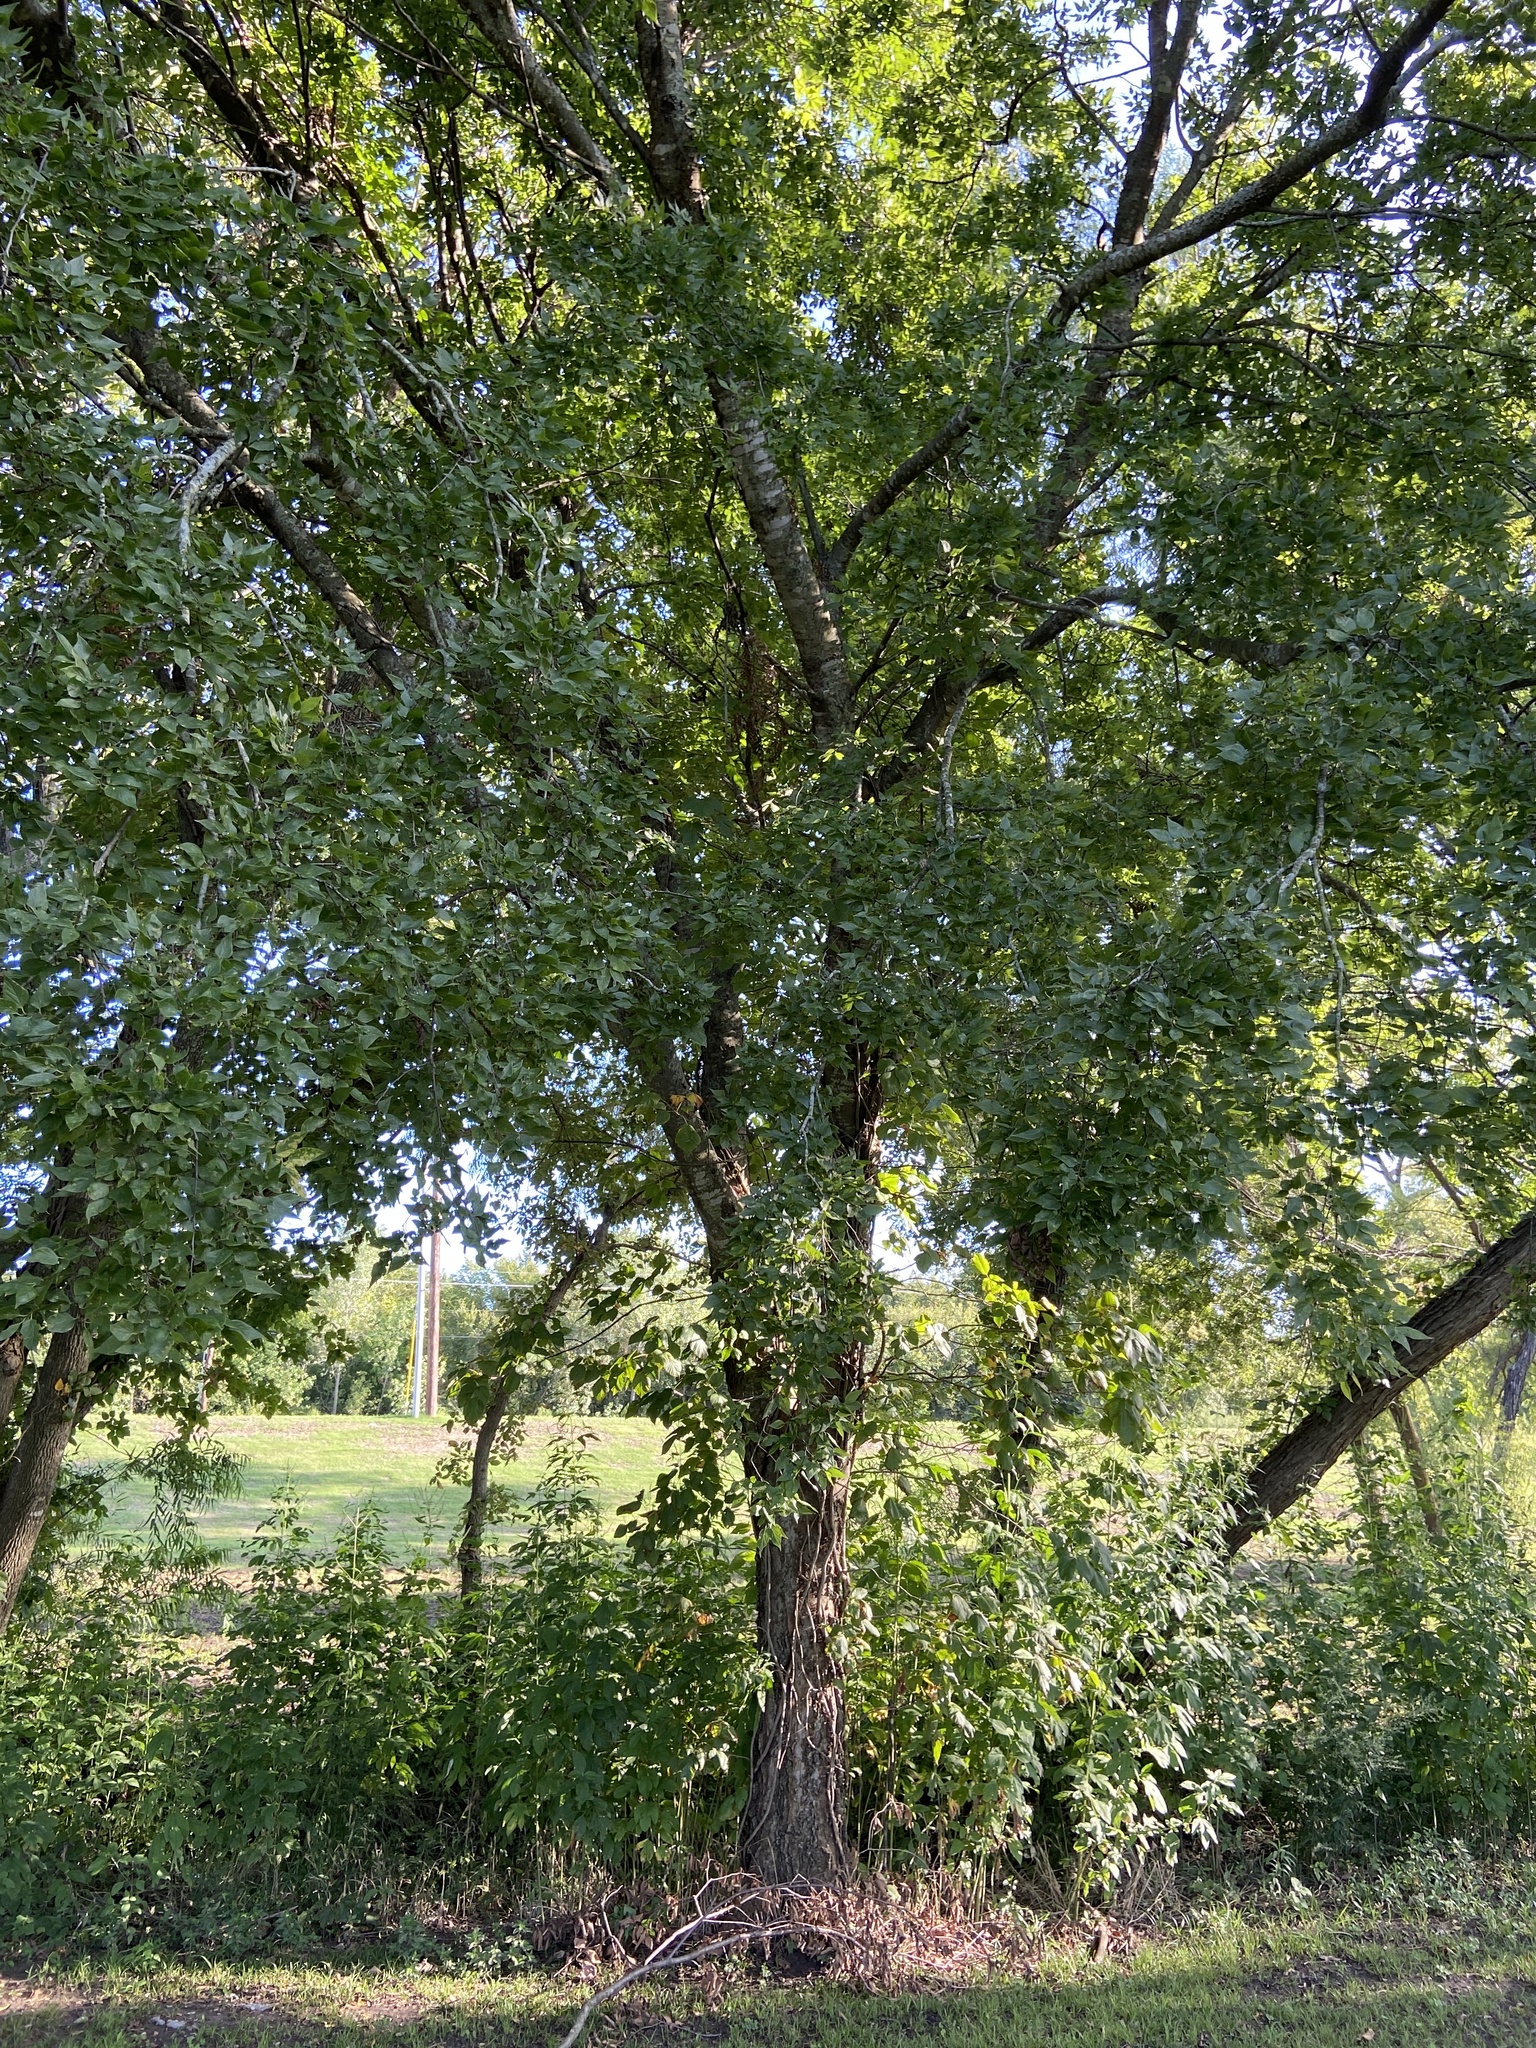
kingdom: Plantae
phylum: Tracheophyta
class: Magnoliopsida
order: Rosales
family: Cannabaceae
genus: Celtis
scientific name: Celtis laevigata
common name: Sugarberry
